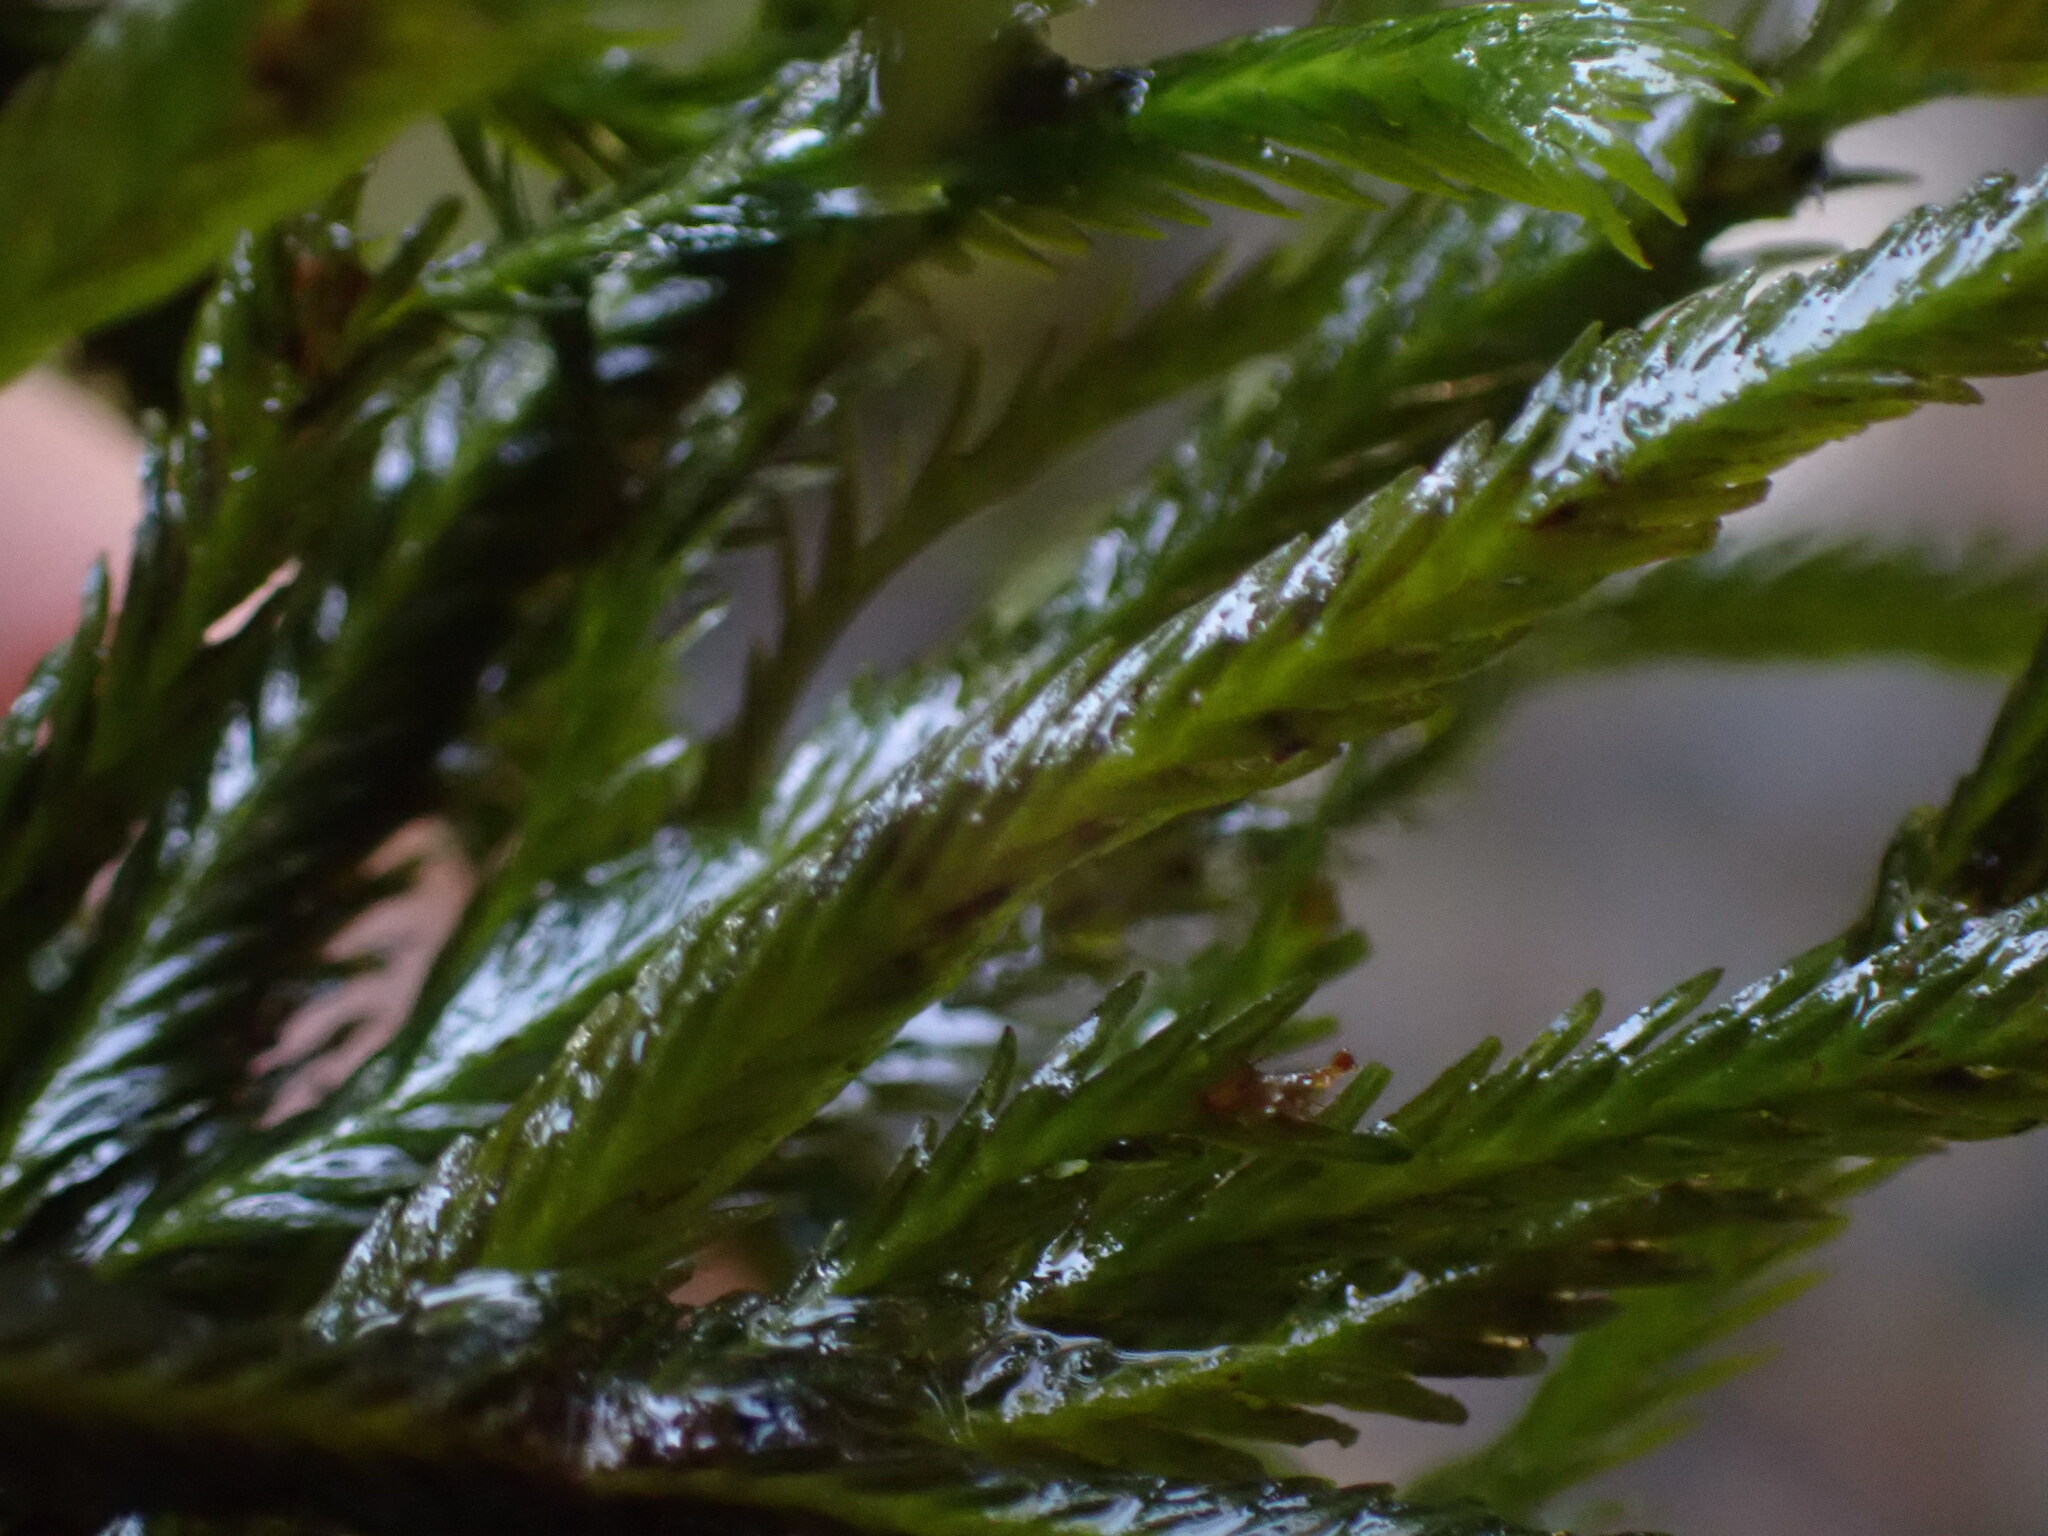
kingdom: Plantae
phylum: Bryophyta
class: Bryopsida
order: Dicranales
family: Fissidentaceae
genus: Fissidens
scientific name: Fissidens grandifrons
